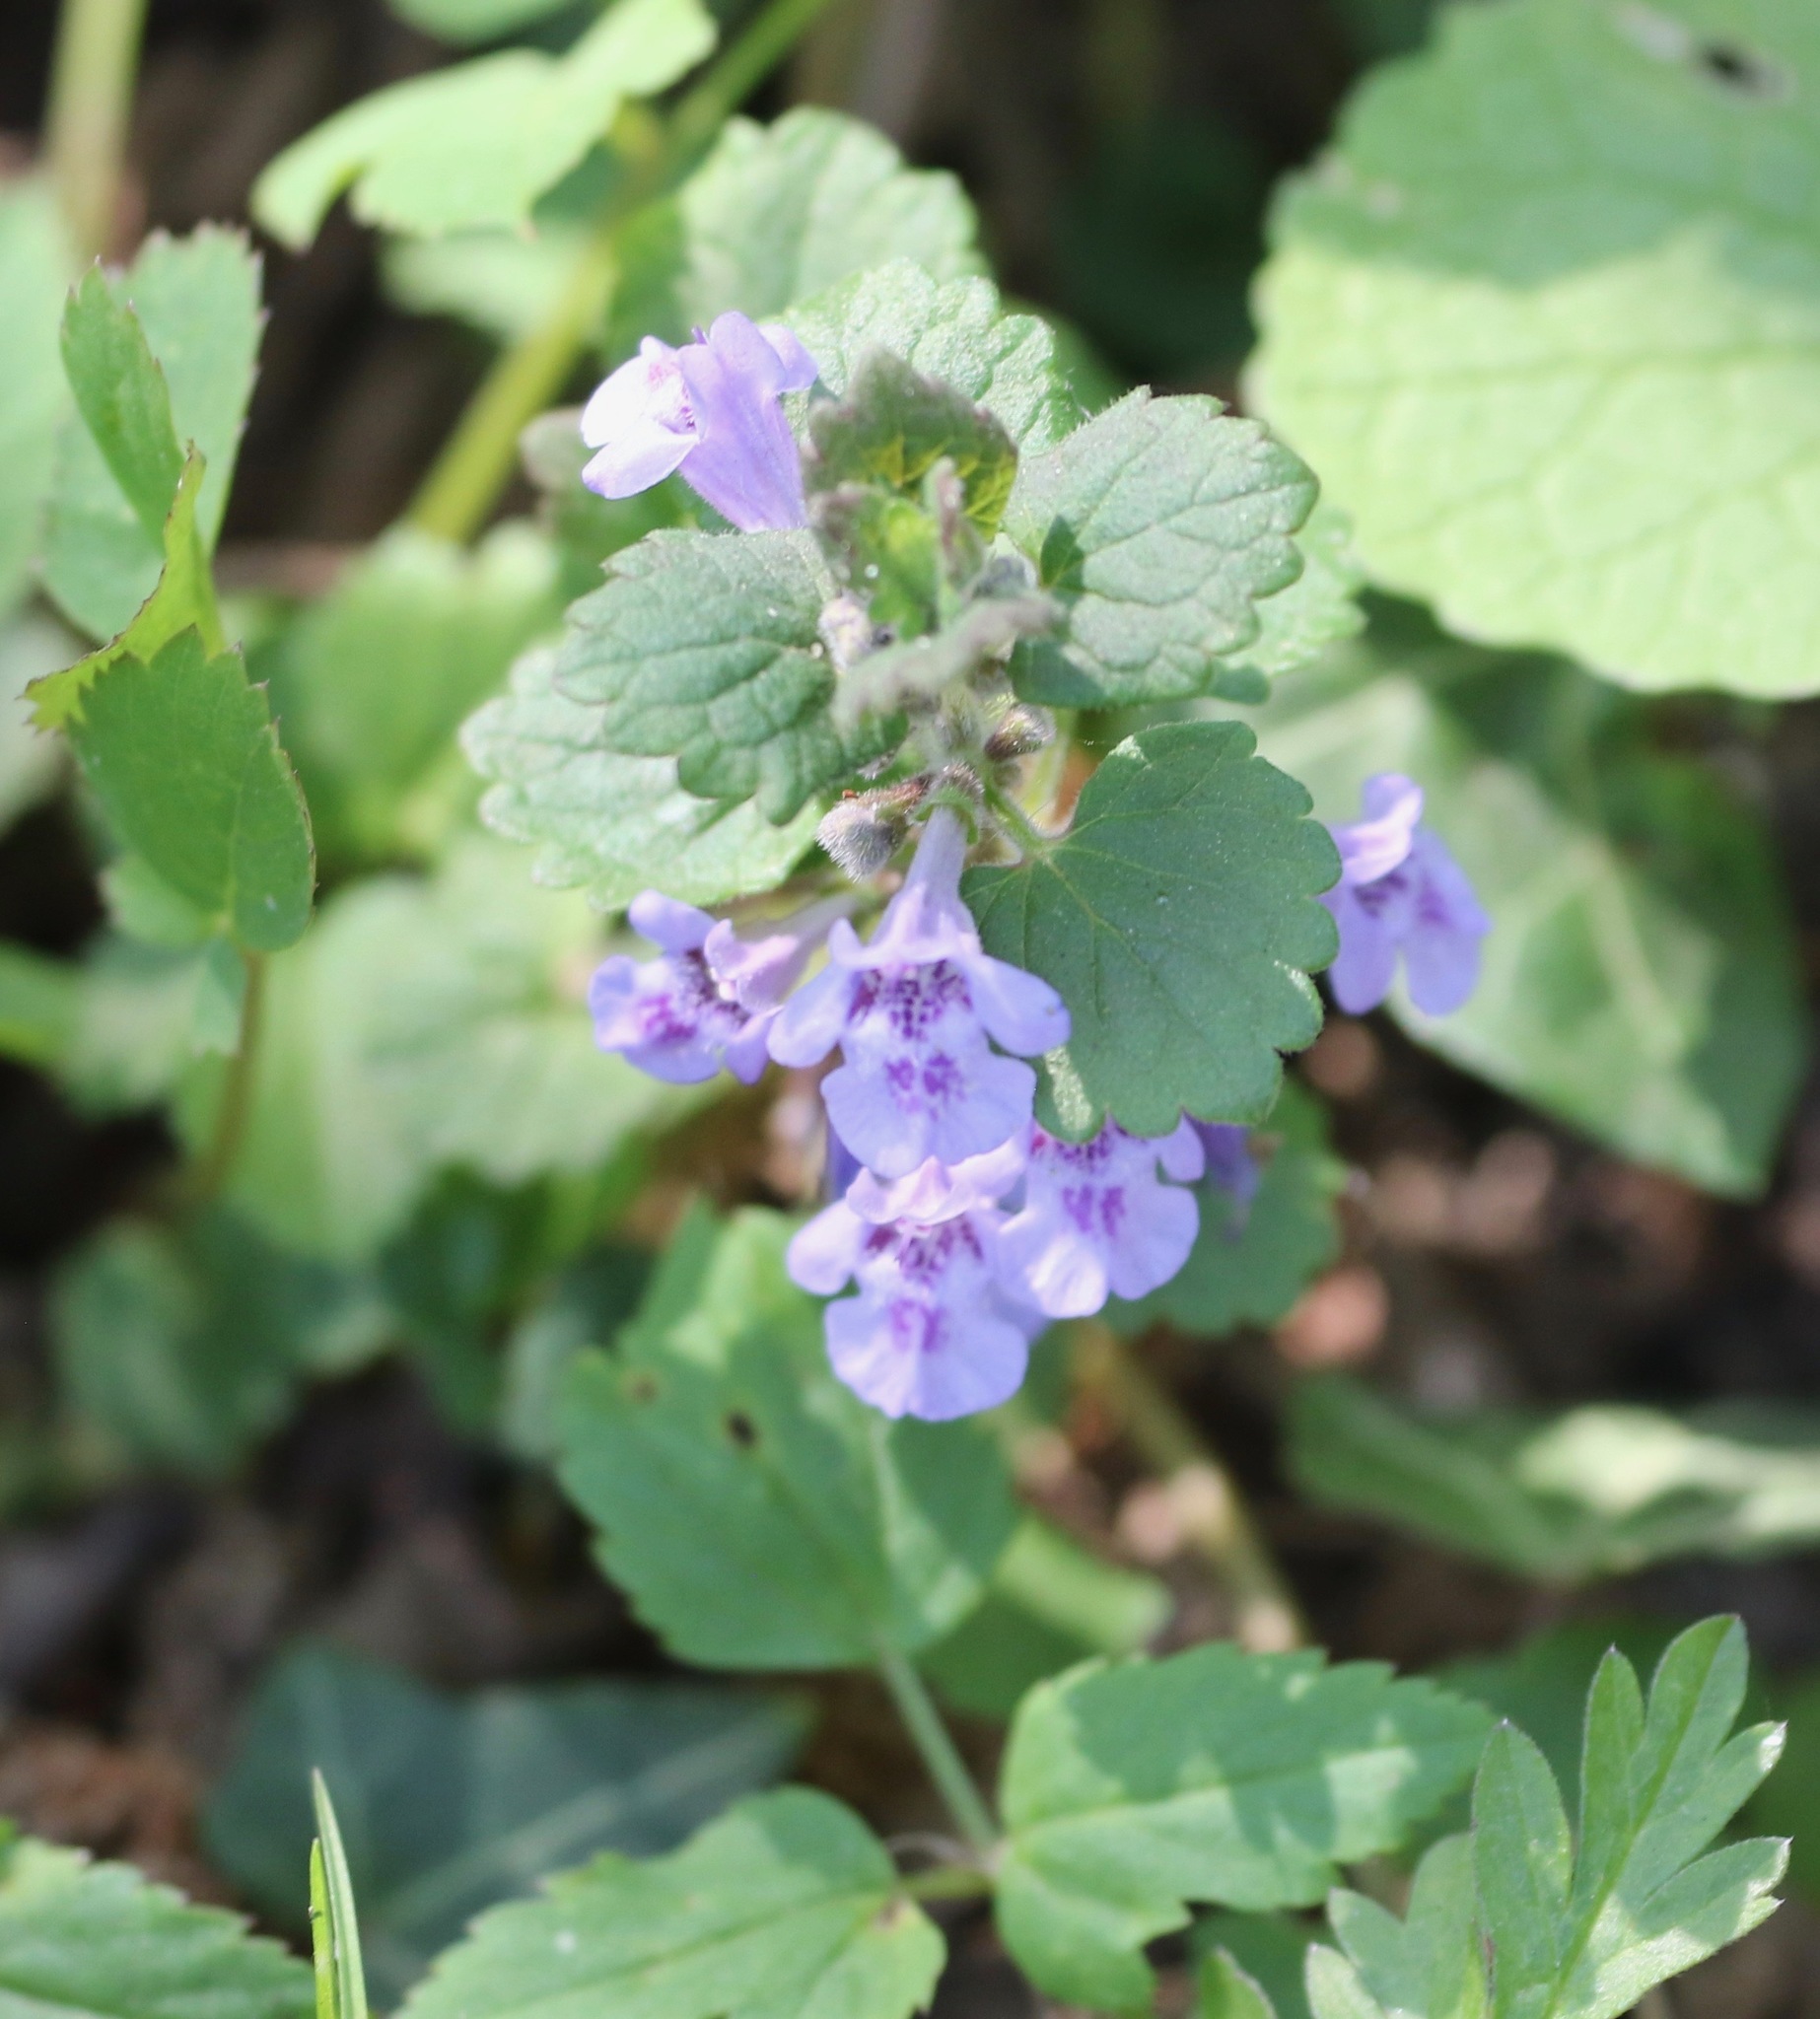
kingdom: Plantae
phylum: Tracheophyta
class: Magnoliopsida
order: Lamiales
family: Lamiaceae
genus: Glechoma
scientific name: Glechoma hederacea
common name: Ground ivy
